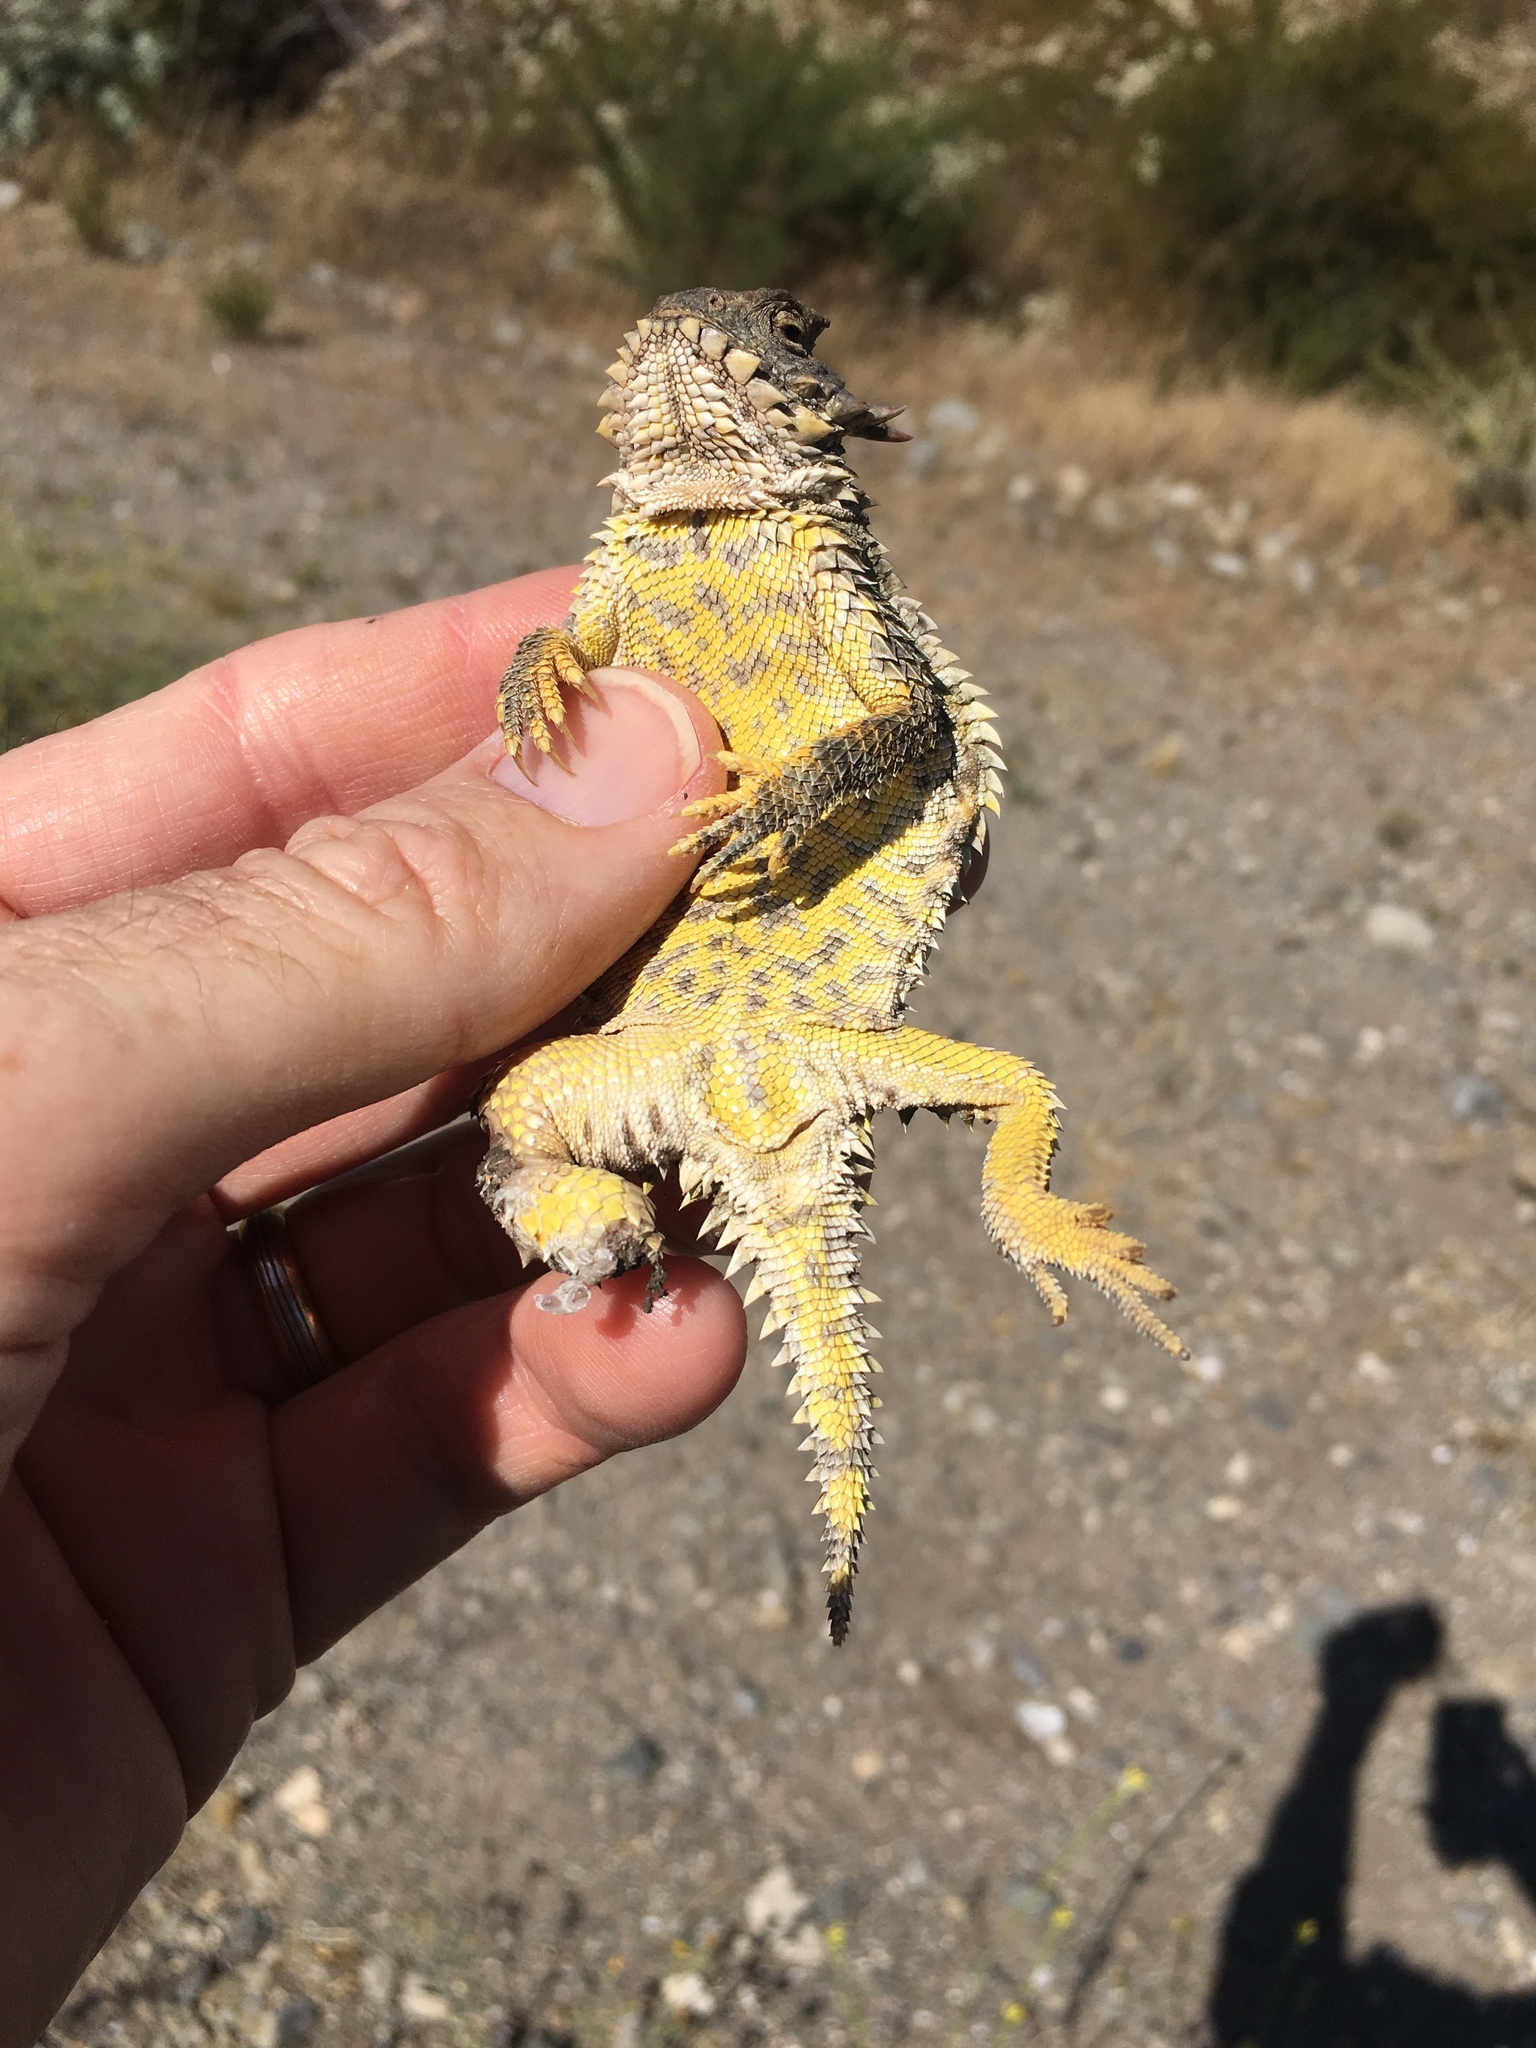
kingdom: Animalia
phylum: Chordata
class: Squamata
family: Phrynosomatidae
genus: Phrynosoma
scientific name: Phrynosoma blainvillii
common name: San diego horned lizard
